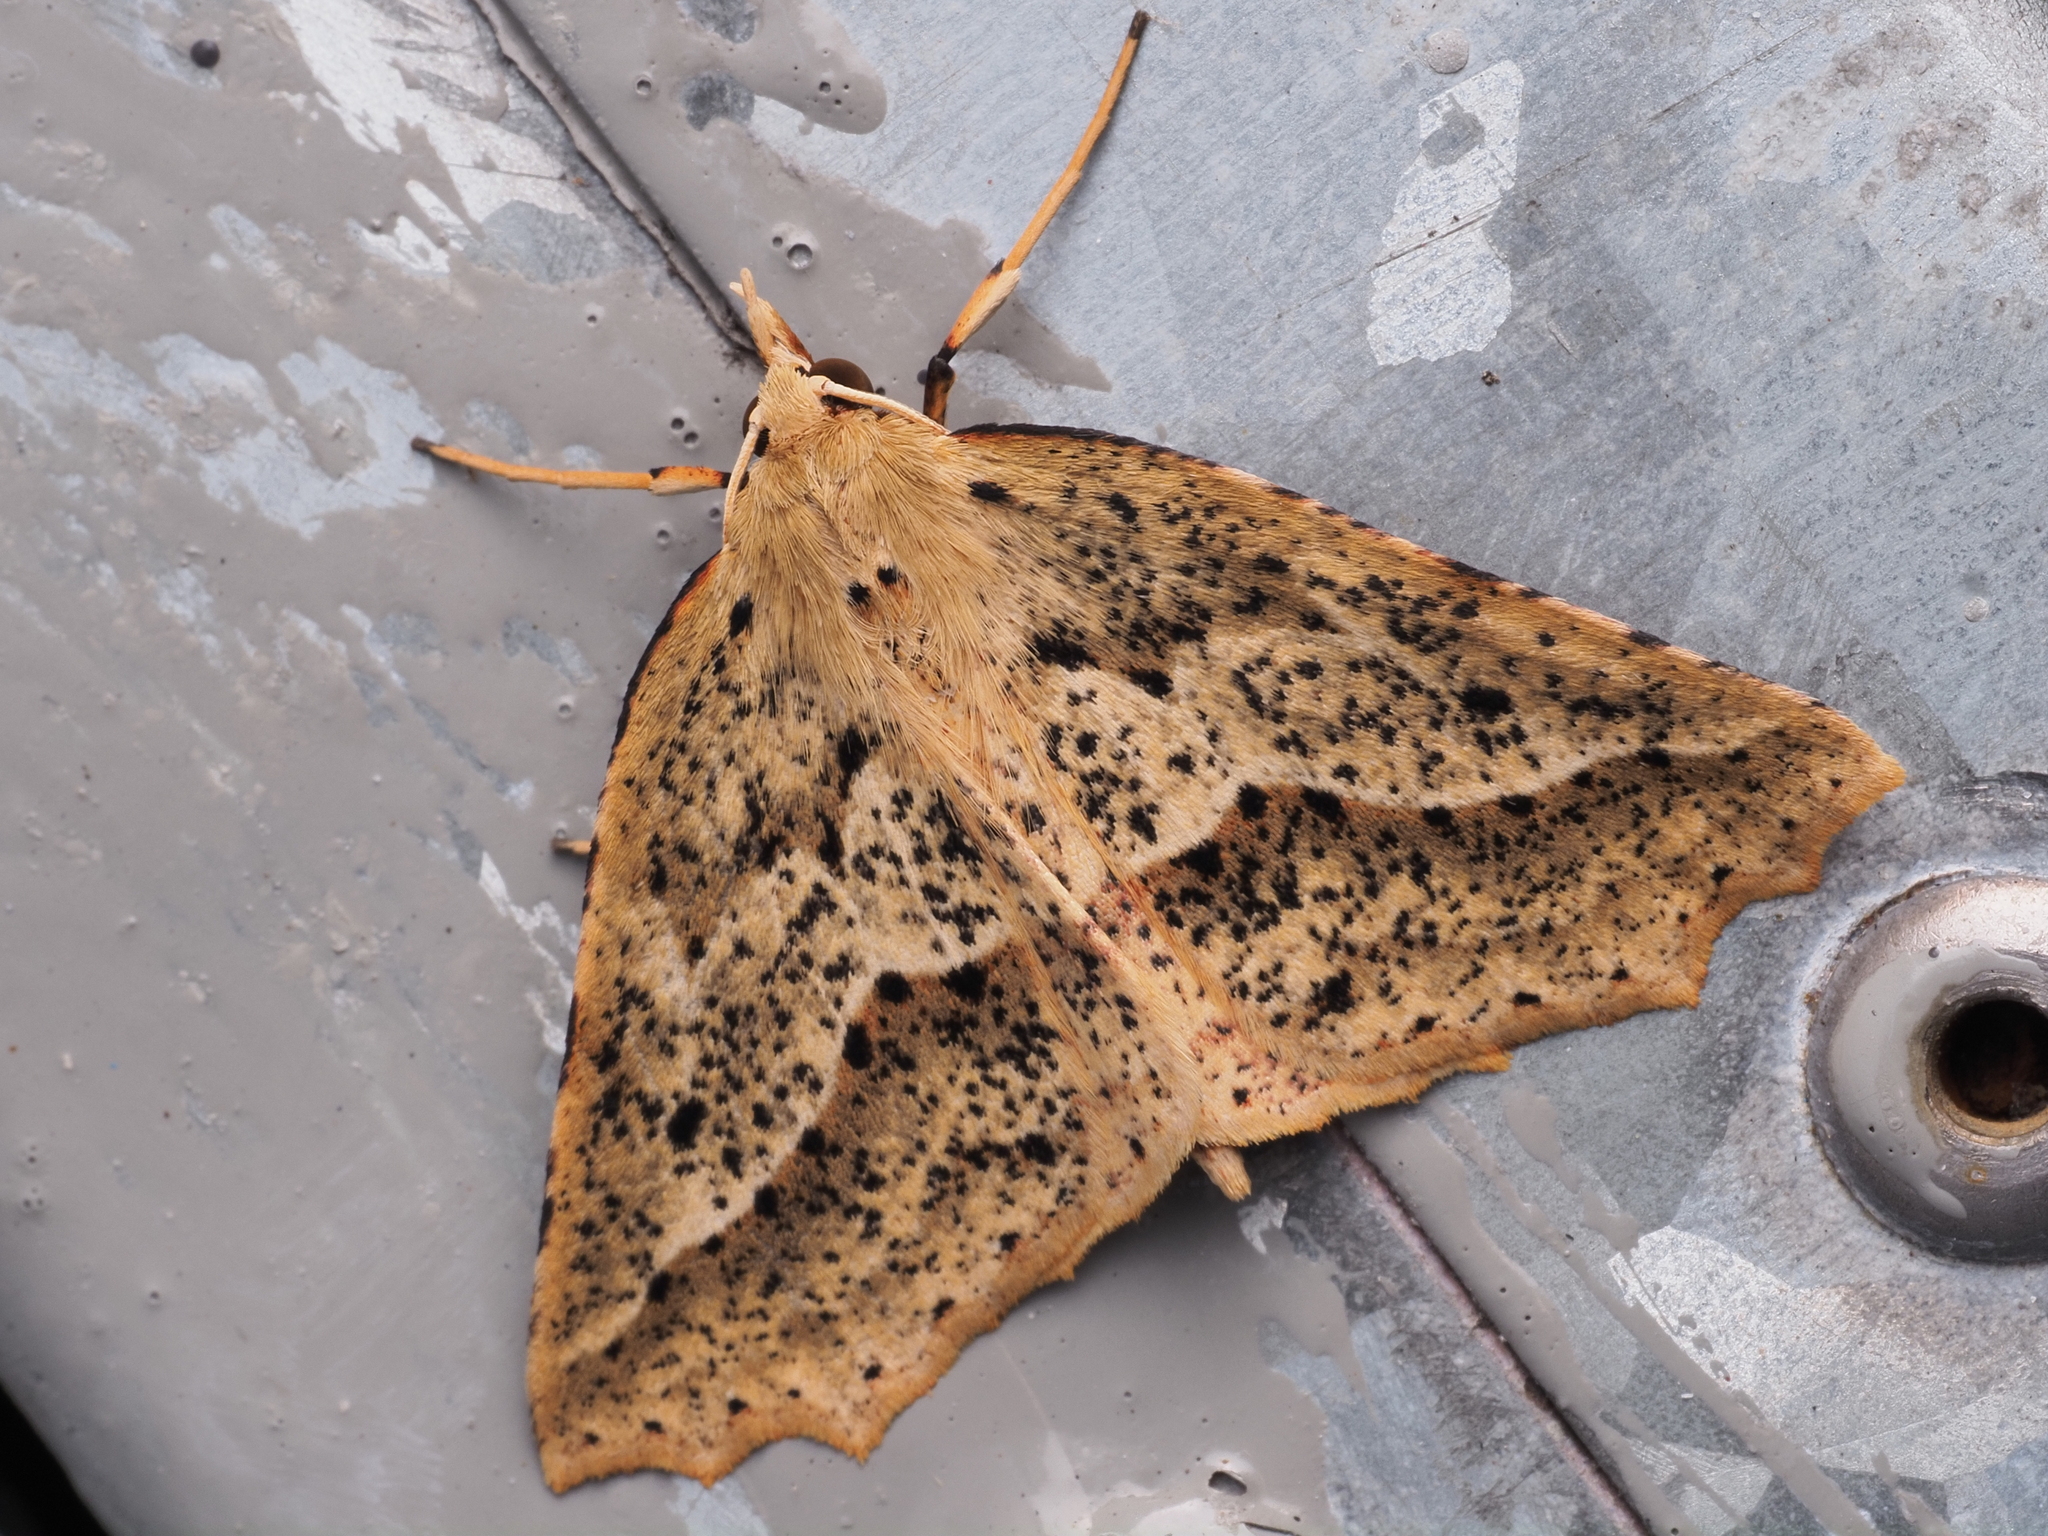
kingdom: Animalia
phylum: Arthropoda
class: Insecta
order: Lepidoptera
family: Geometridae
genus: Ischalis
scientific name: Ischalis variabilis
